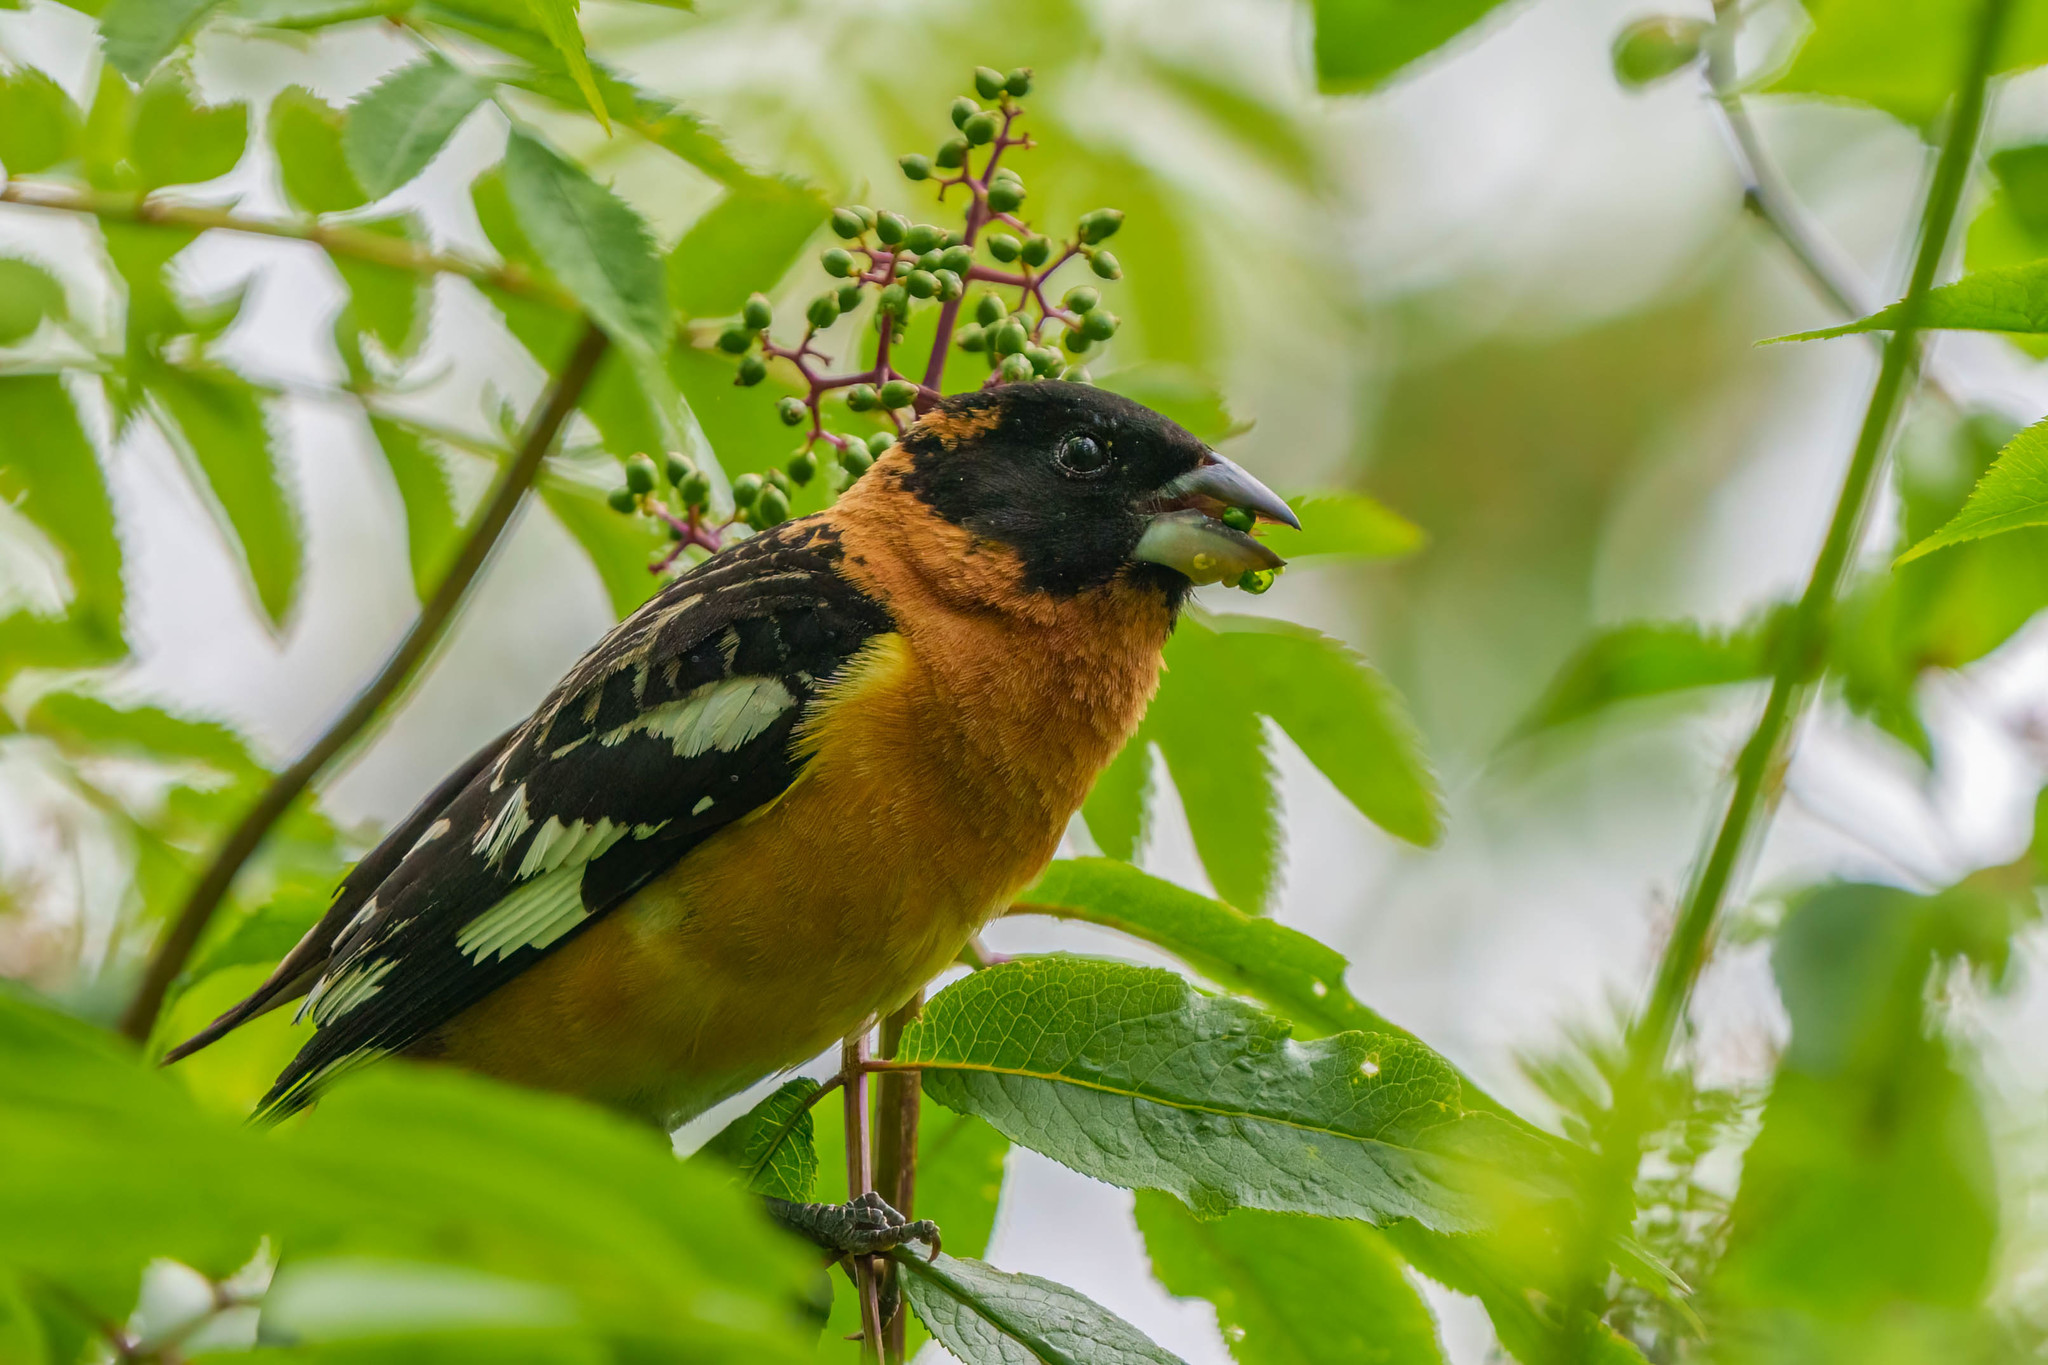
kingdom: Animalia
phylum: Chordata
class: Aves
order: Passeriformes
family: Cardinalidae
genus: Pheucticus
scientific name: Pheucticus melanocephalus
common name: Black-headed grosbeak
